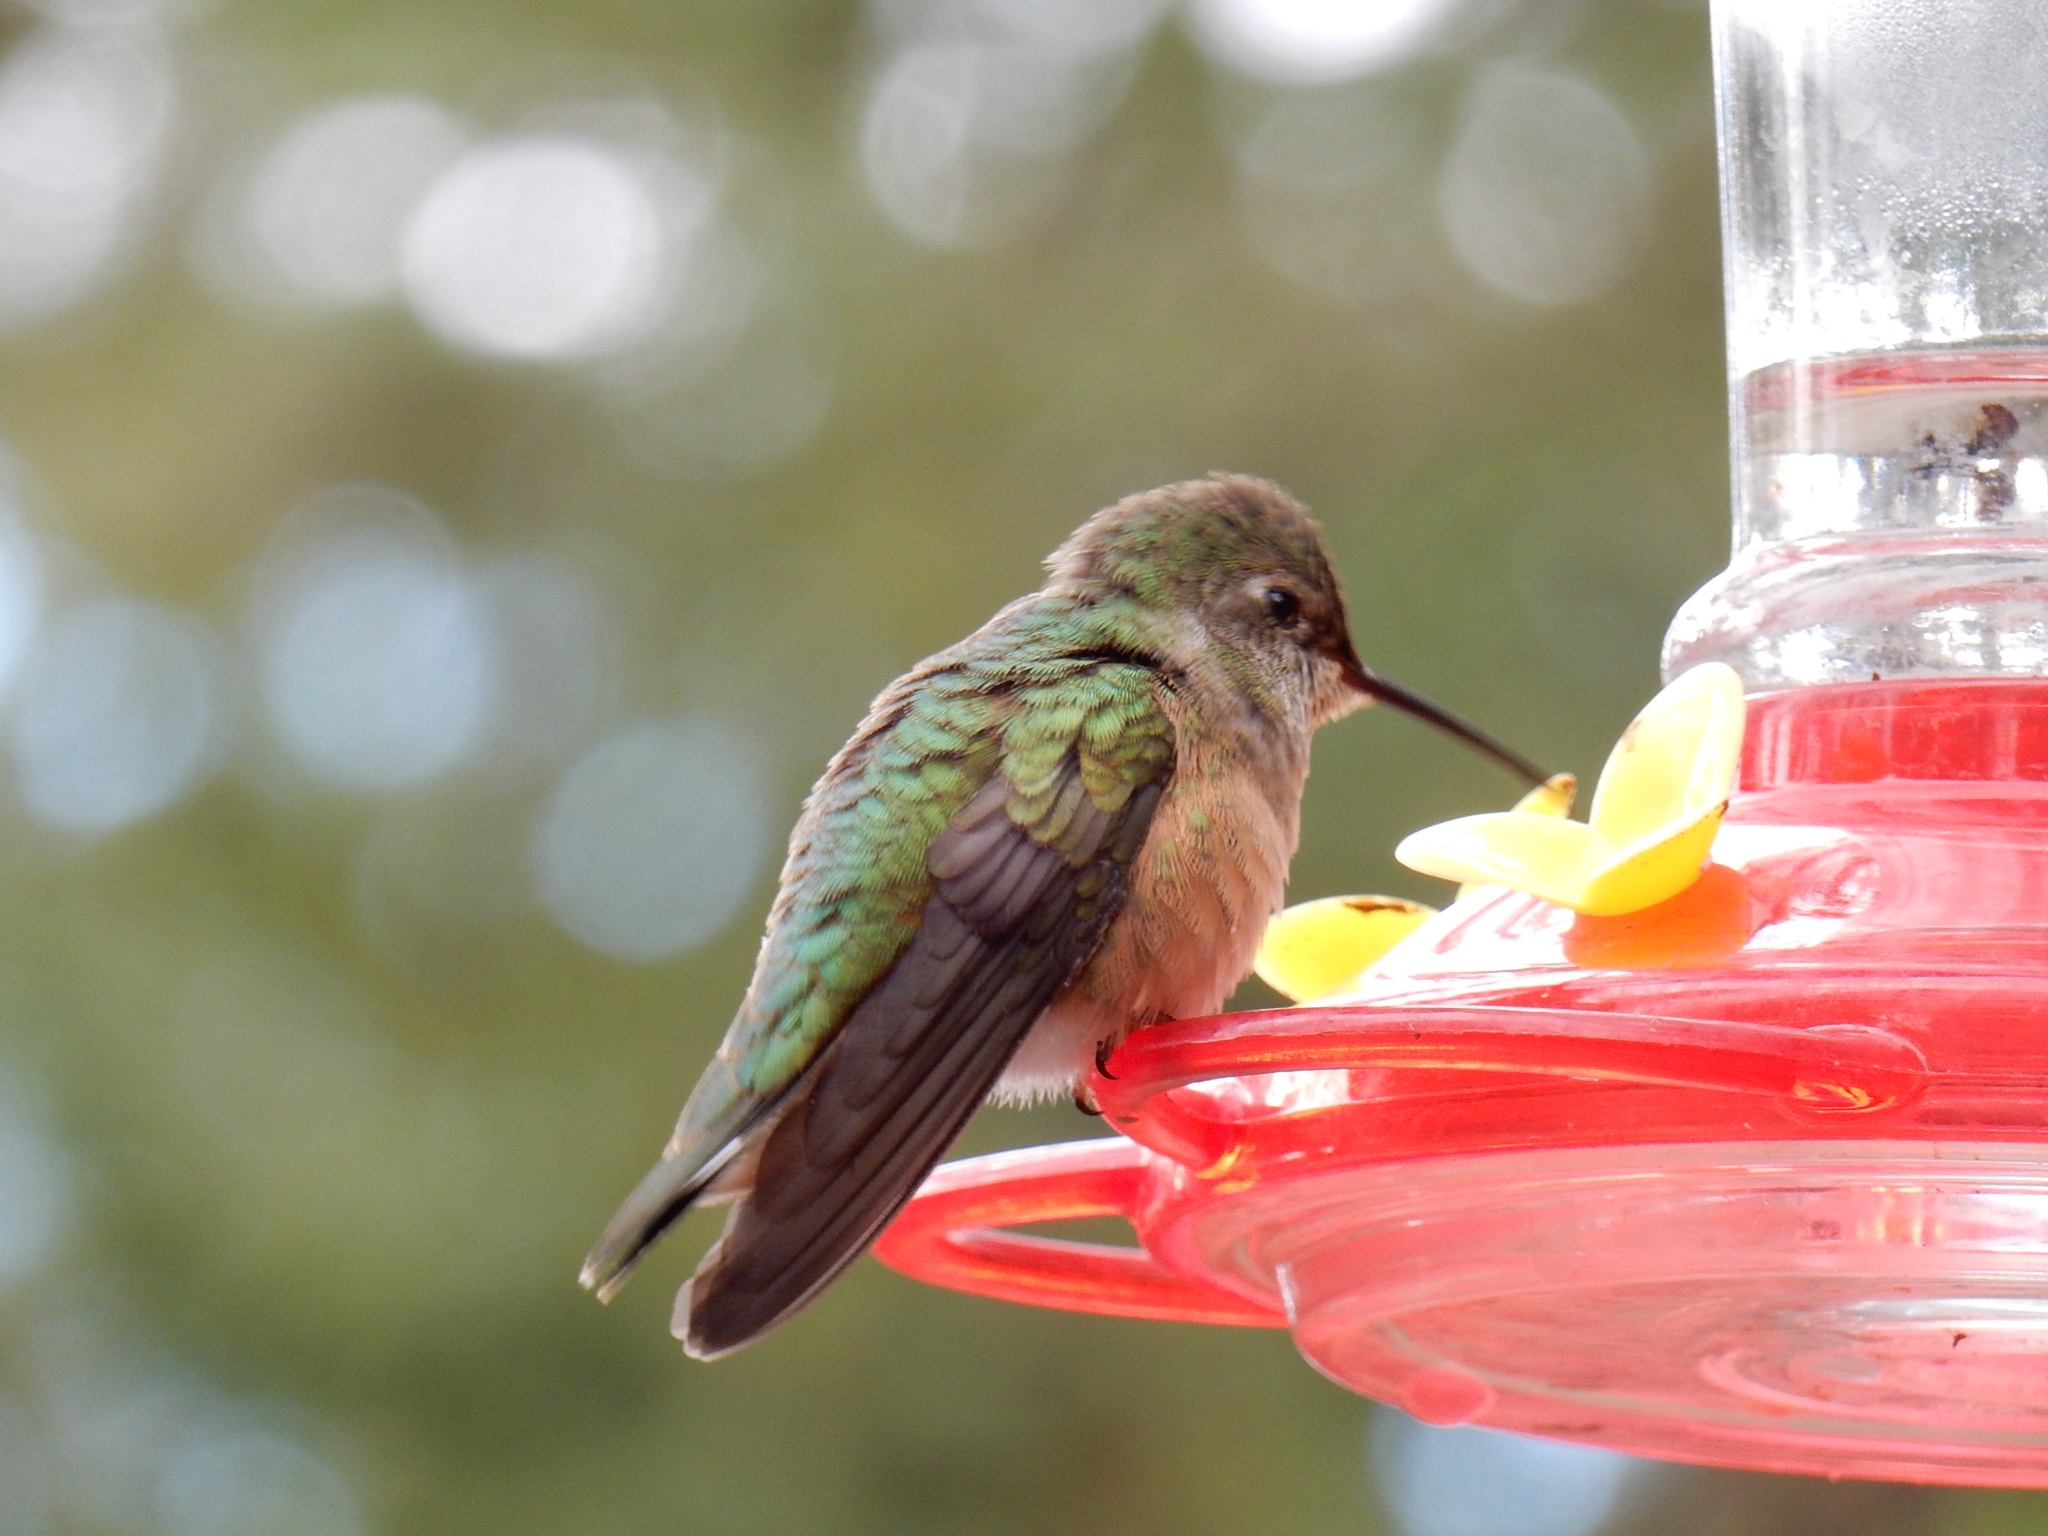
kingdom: Animalia
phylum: Chordata
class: Aves
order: Apodiformes
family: Trochilidae
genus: Selasphorus
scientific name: Selasphorus platycercus
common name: Broad-tailed hummingbird
